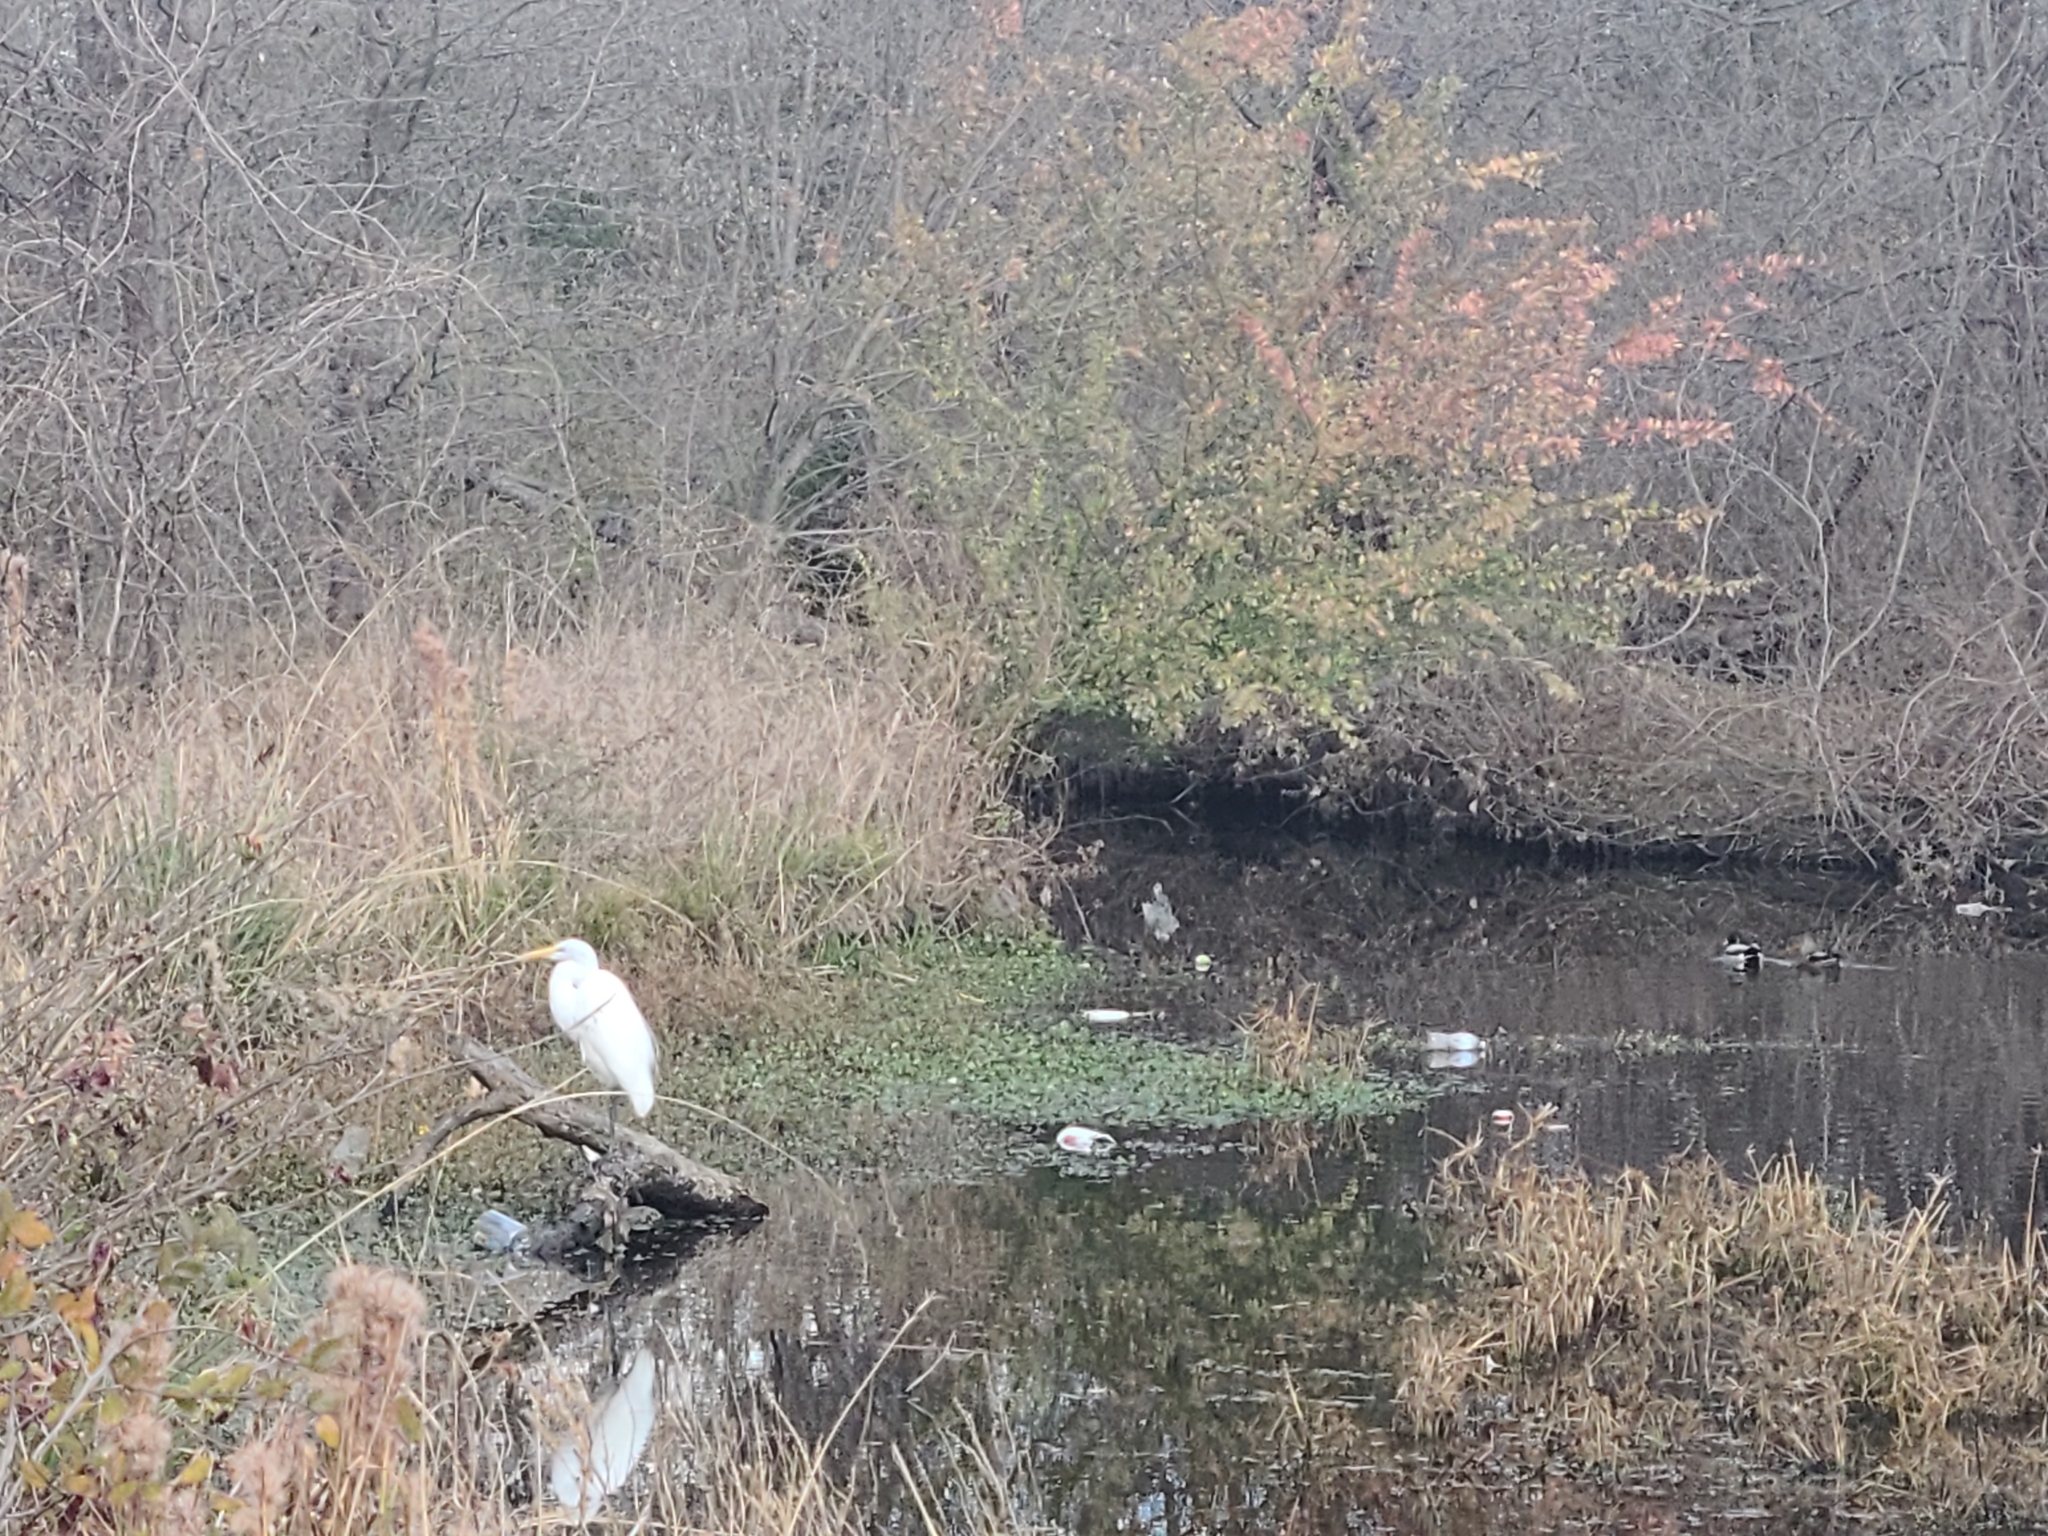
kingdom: Animalia
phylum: Chordata
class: Aves
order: Pelecaniformes
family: Ardeidae
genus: Ardea
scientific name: Ardea alba
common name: Great egret
